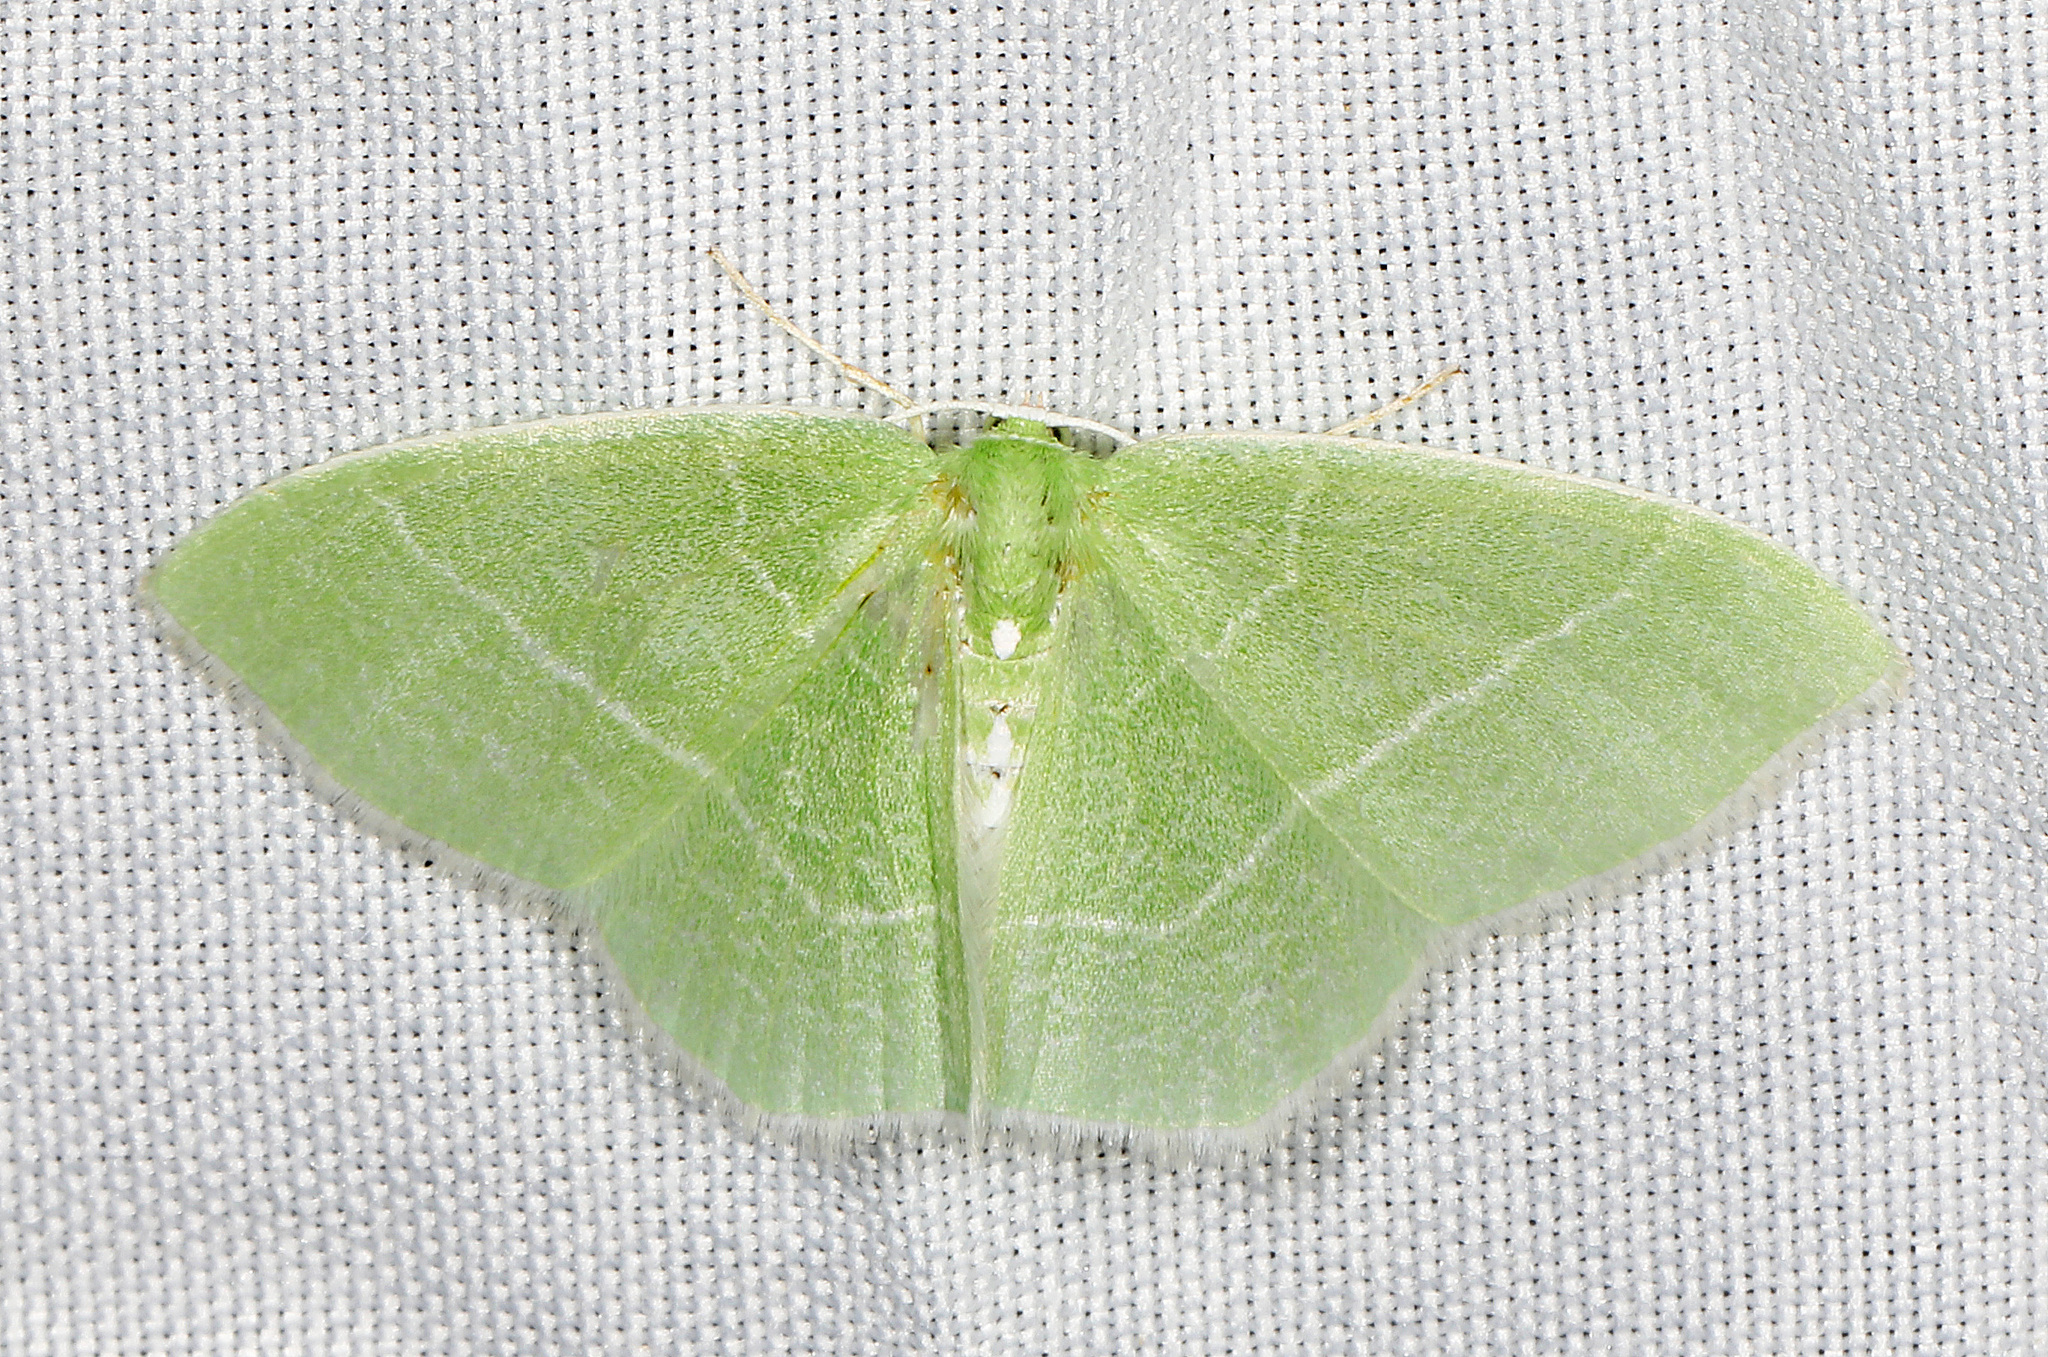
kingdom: Animalia
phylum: Arthropoda
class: Insecta
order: Lepidoptera
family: Geometridae
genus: Nemoria
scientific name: Nemoria mimosaria
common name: White-fringed emerald
